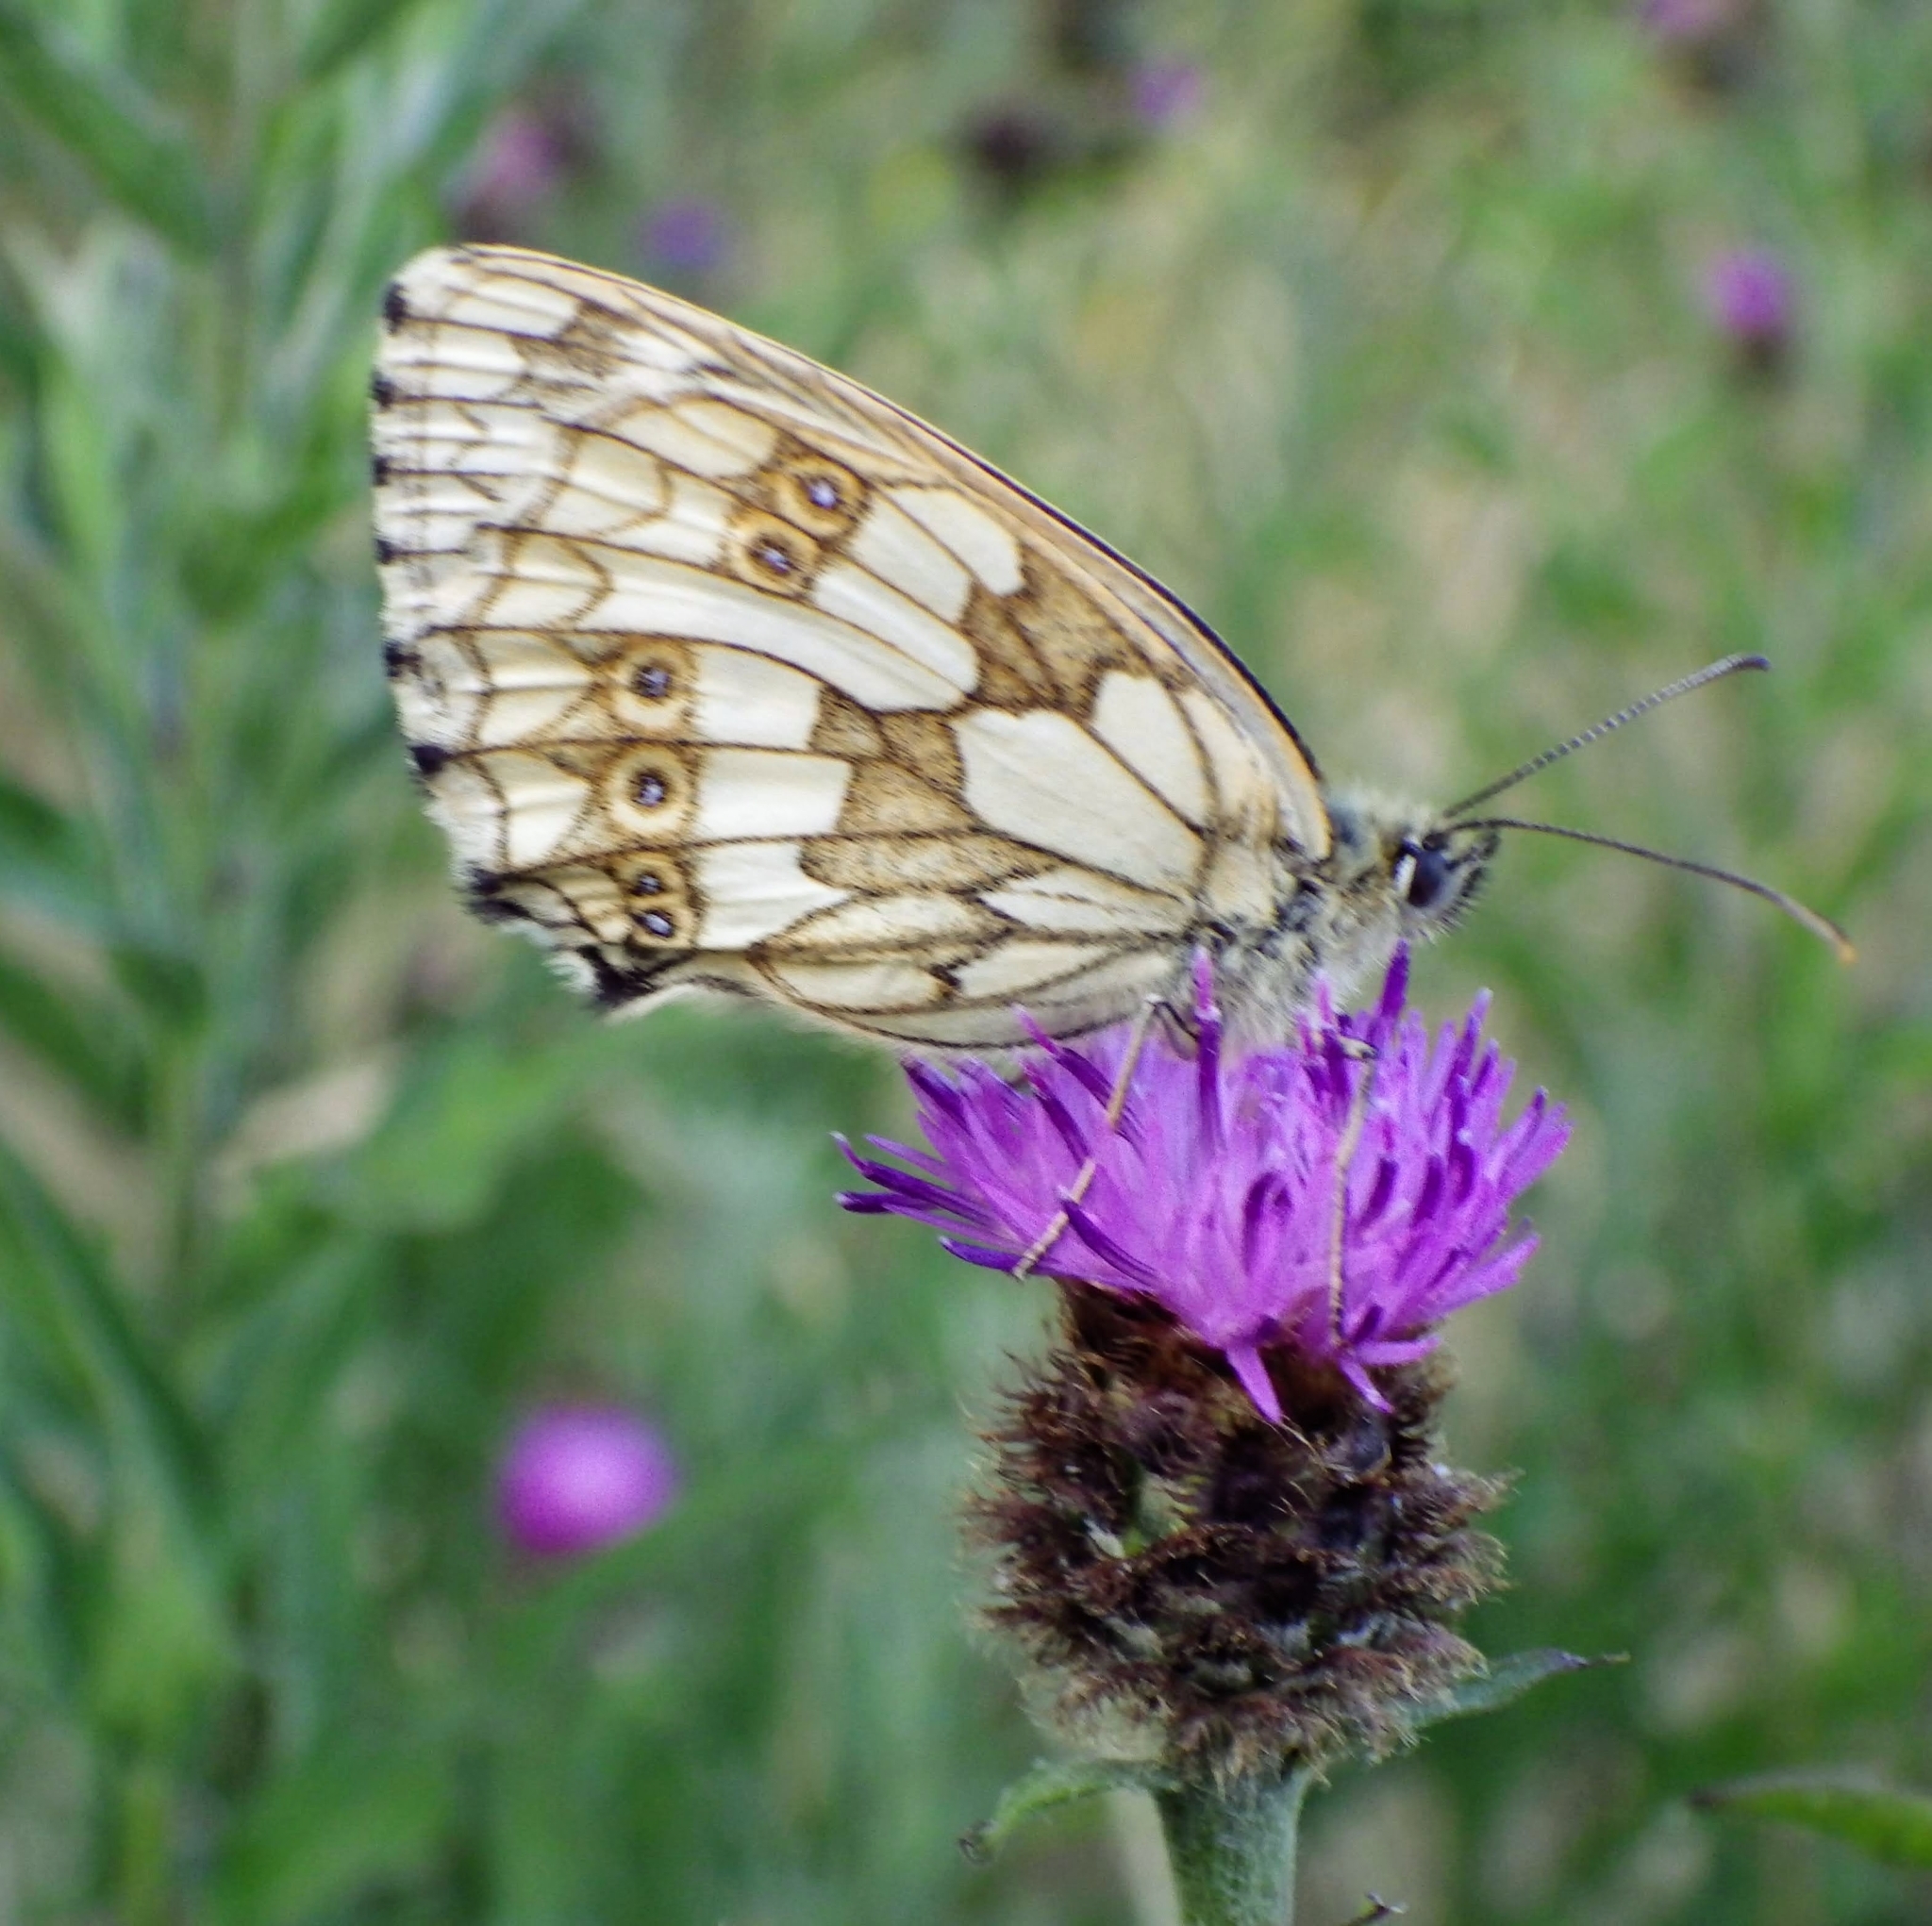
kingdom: Animalia
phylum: Arthropoda
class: Insecta
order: Lepidoptera
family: Nymphalidae
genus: Melanargia
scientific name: Melanargia galathea
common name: Marbled white
